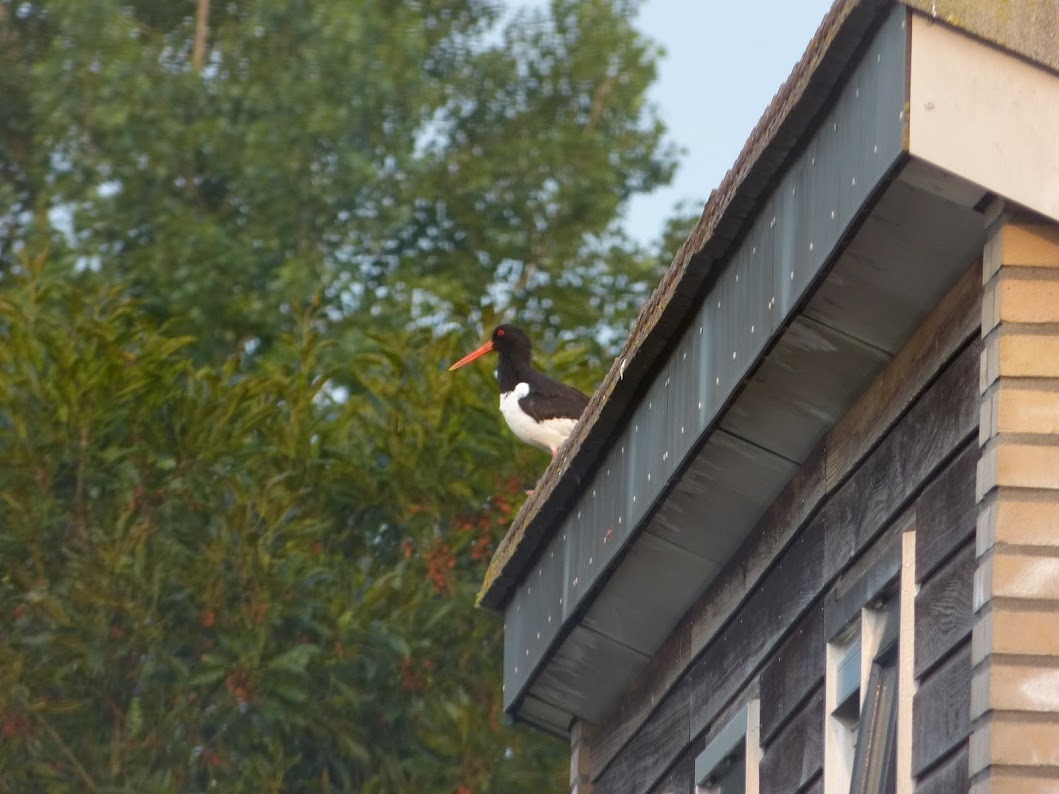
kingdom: Animalia
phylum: Chordata
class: Aves
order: Charadriiformes
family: Haematopodidae
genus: Haematopus
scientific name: Haematopus ostralegus
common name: Eurasian oystercatcher
